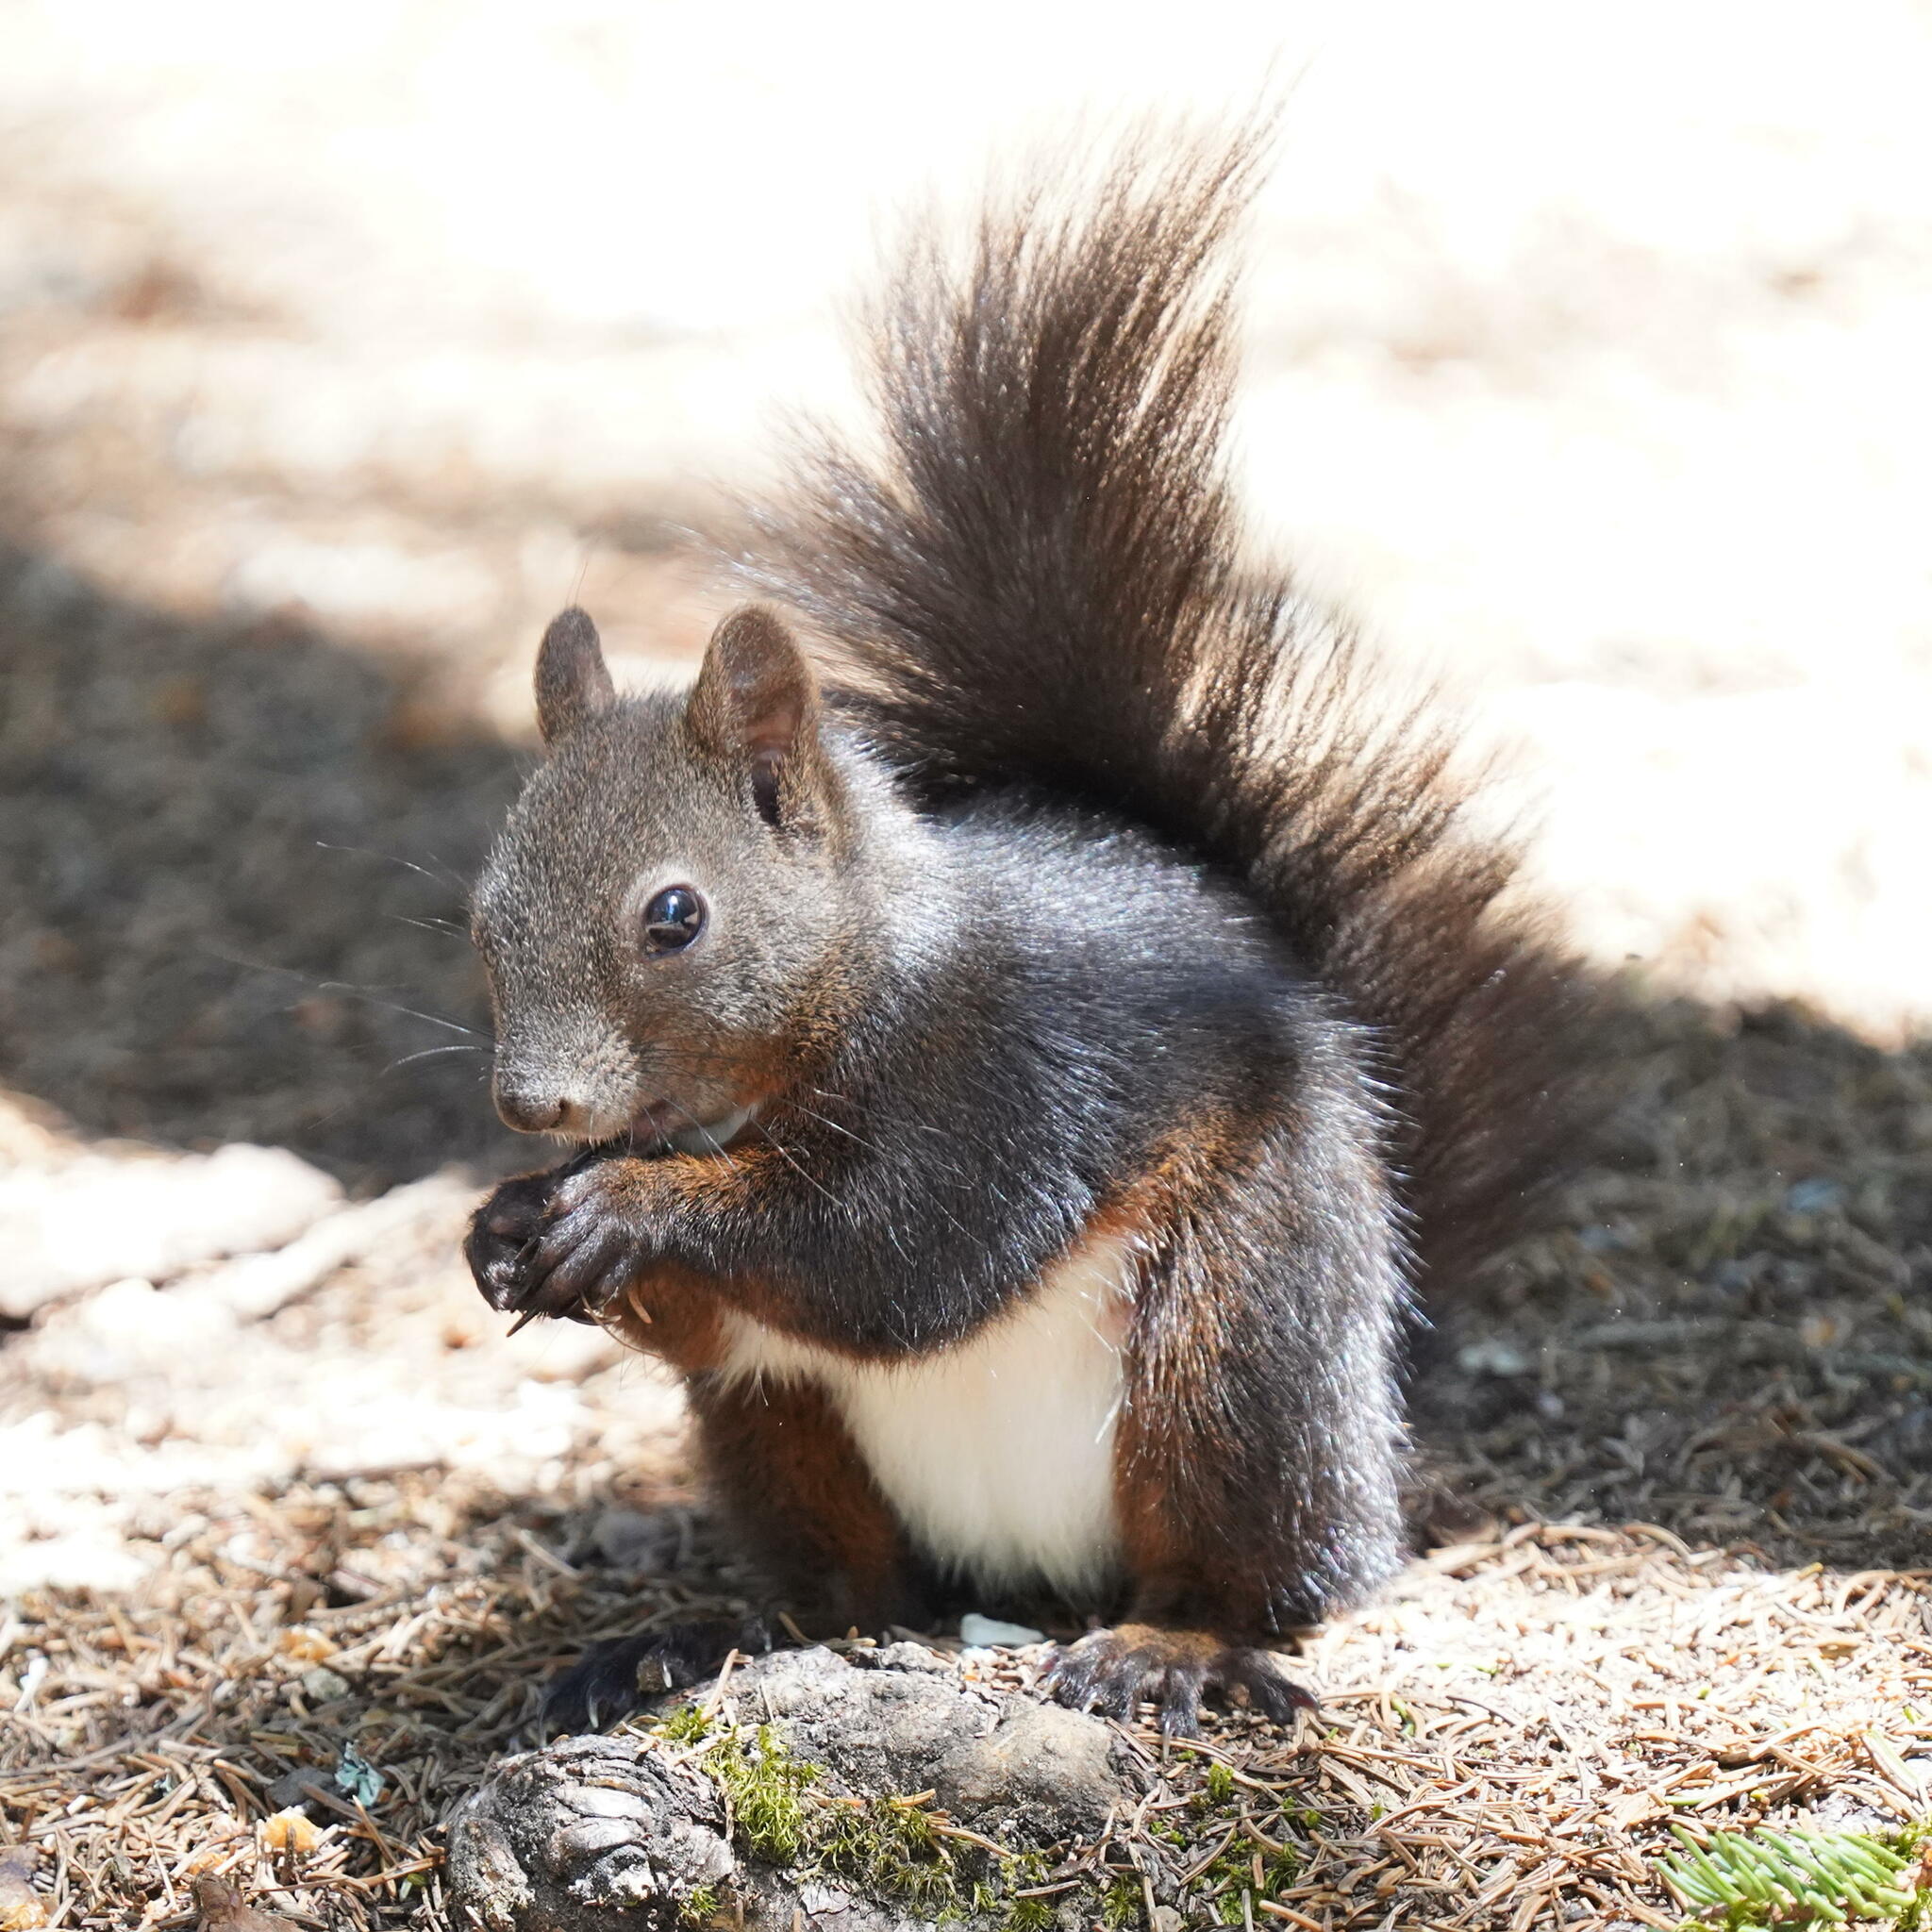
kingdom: Animalia
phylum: Chordata
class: Mammalia
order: Rodentia
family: Sciuridae
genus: Sciurus
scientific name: Sciurus vulgaris
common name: Eurasian red squirrel
